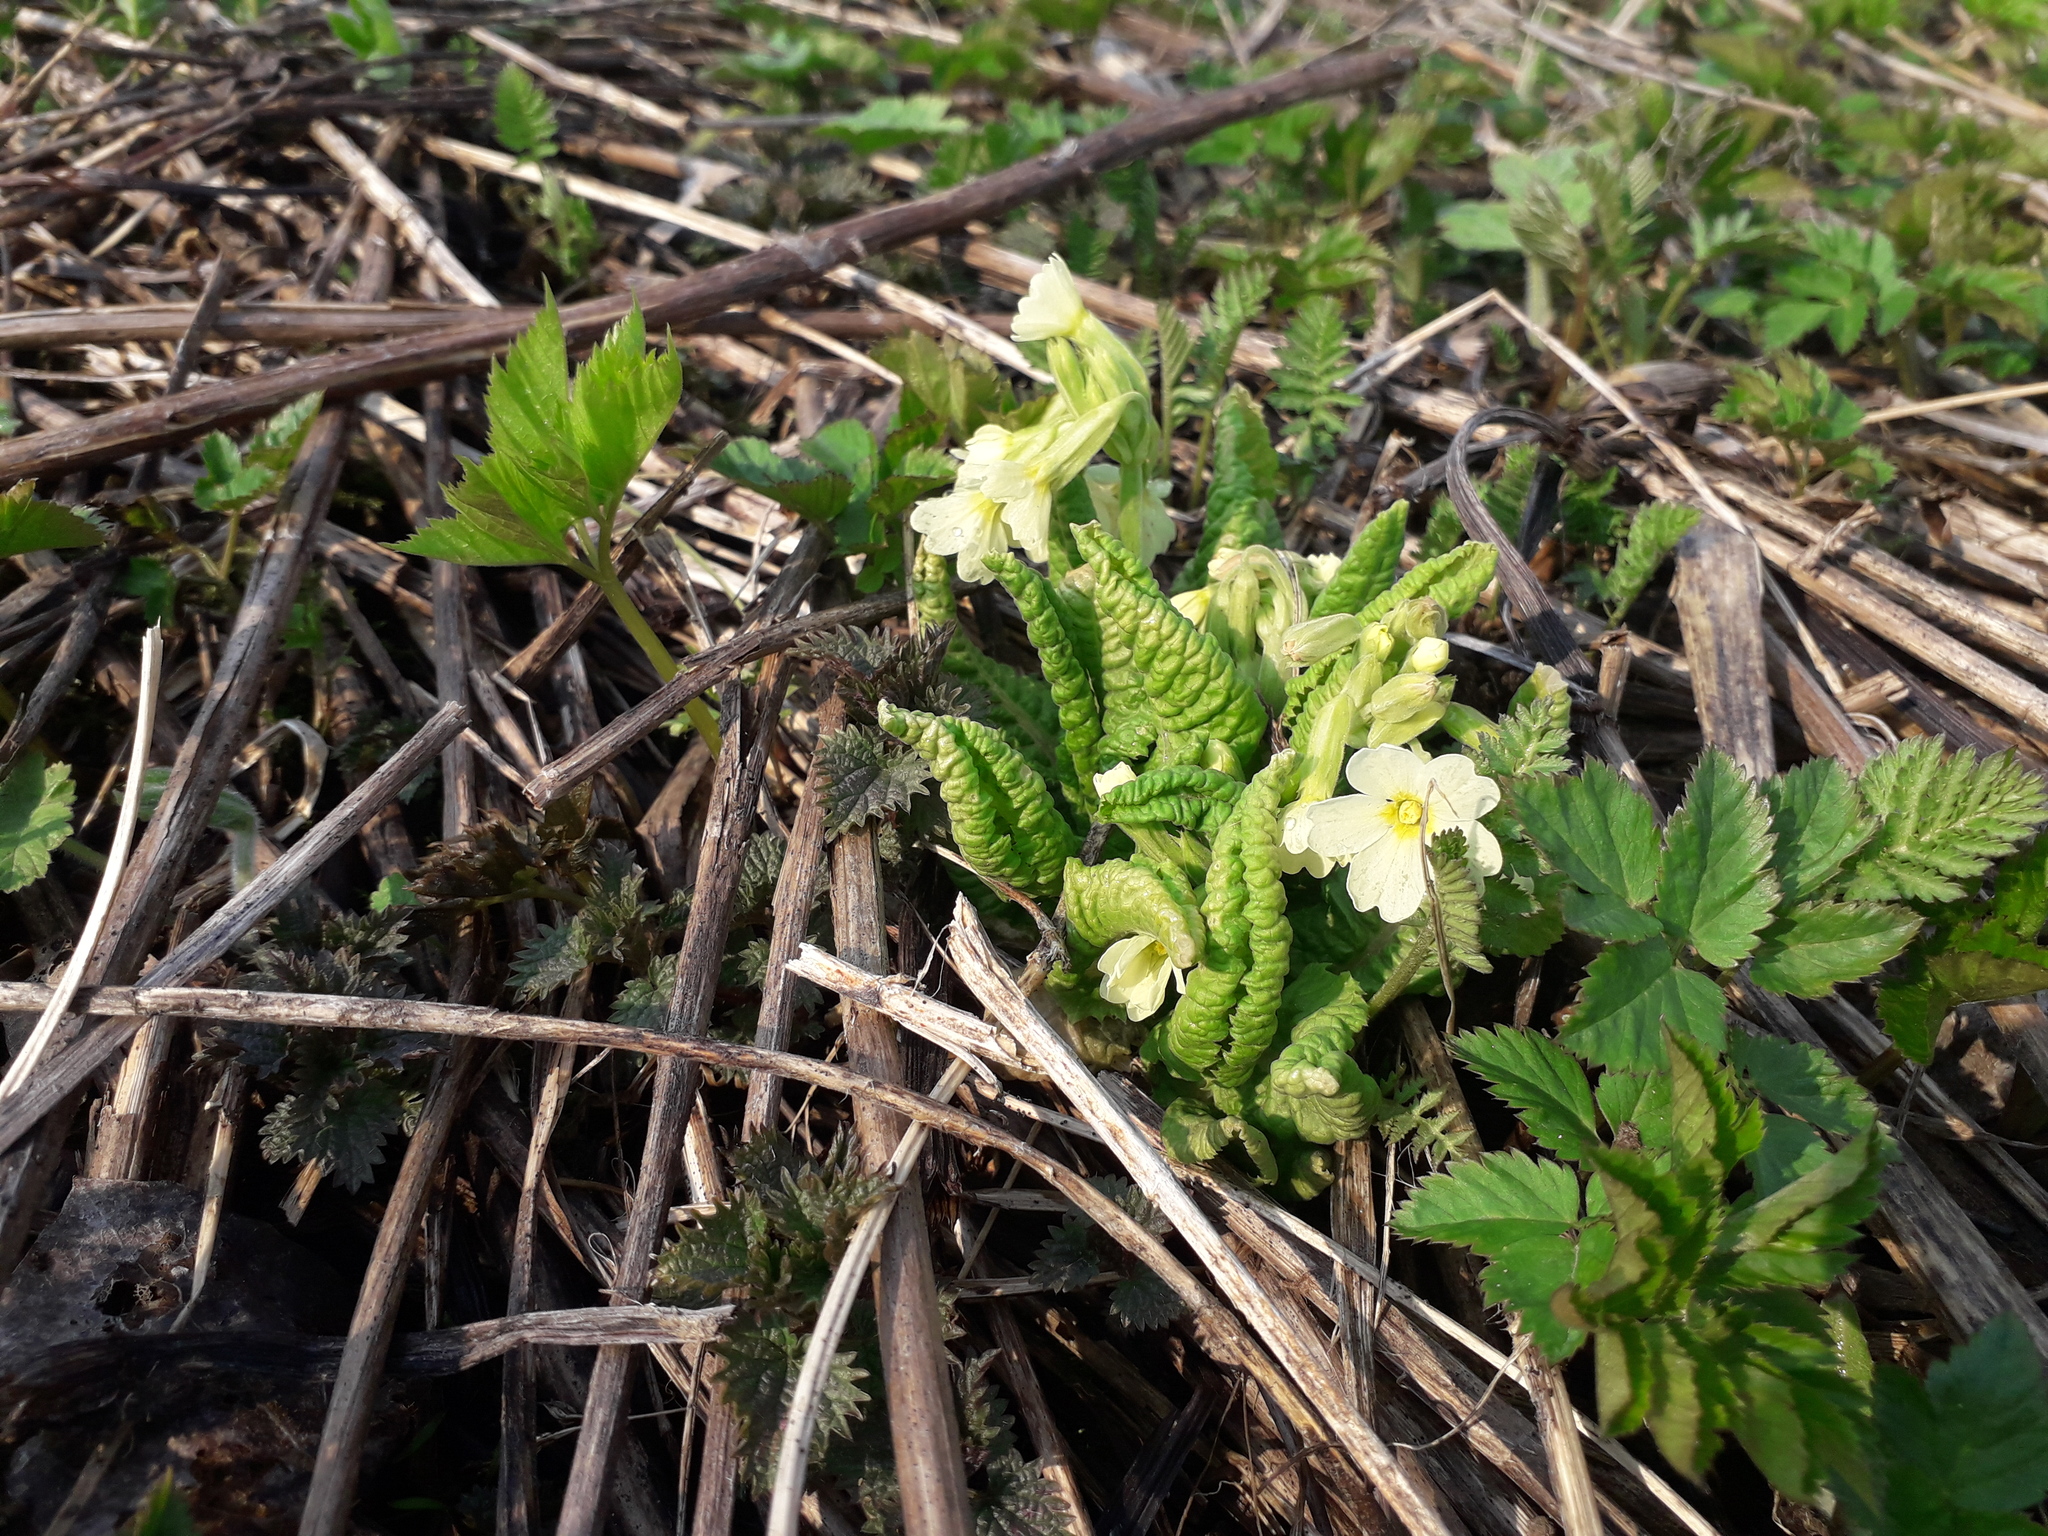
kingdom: Plantae
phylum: Tracheophyta
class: Magnoliopsida
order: Ericales
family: Primulaceae
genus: Primula
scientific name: Primula elatior
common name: Oxlip
